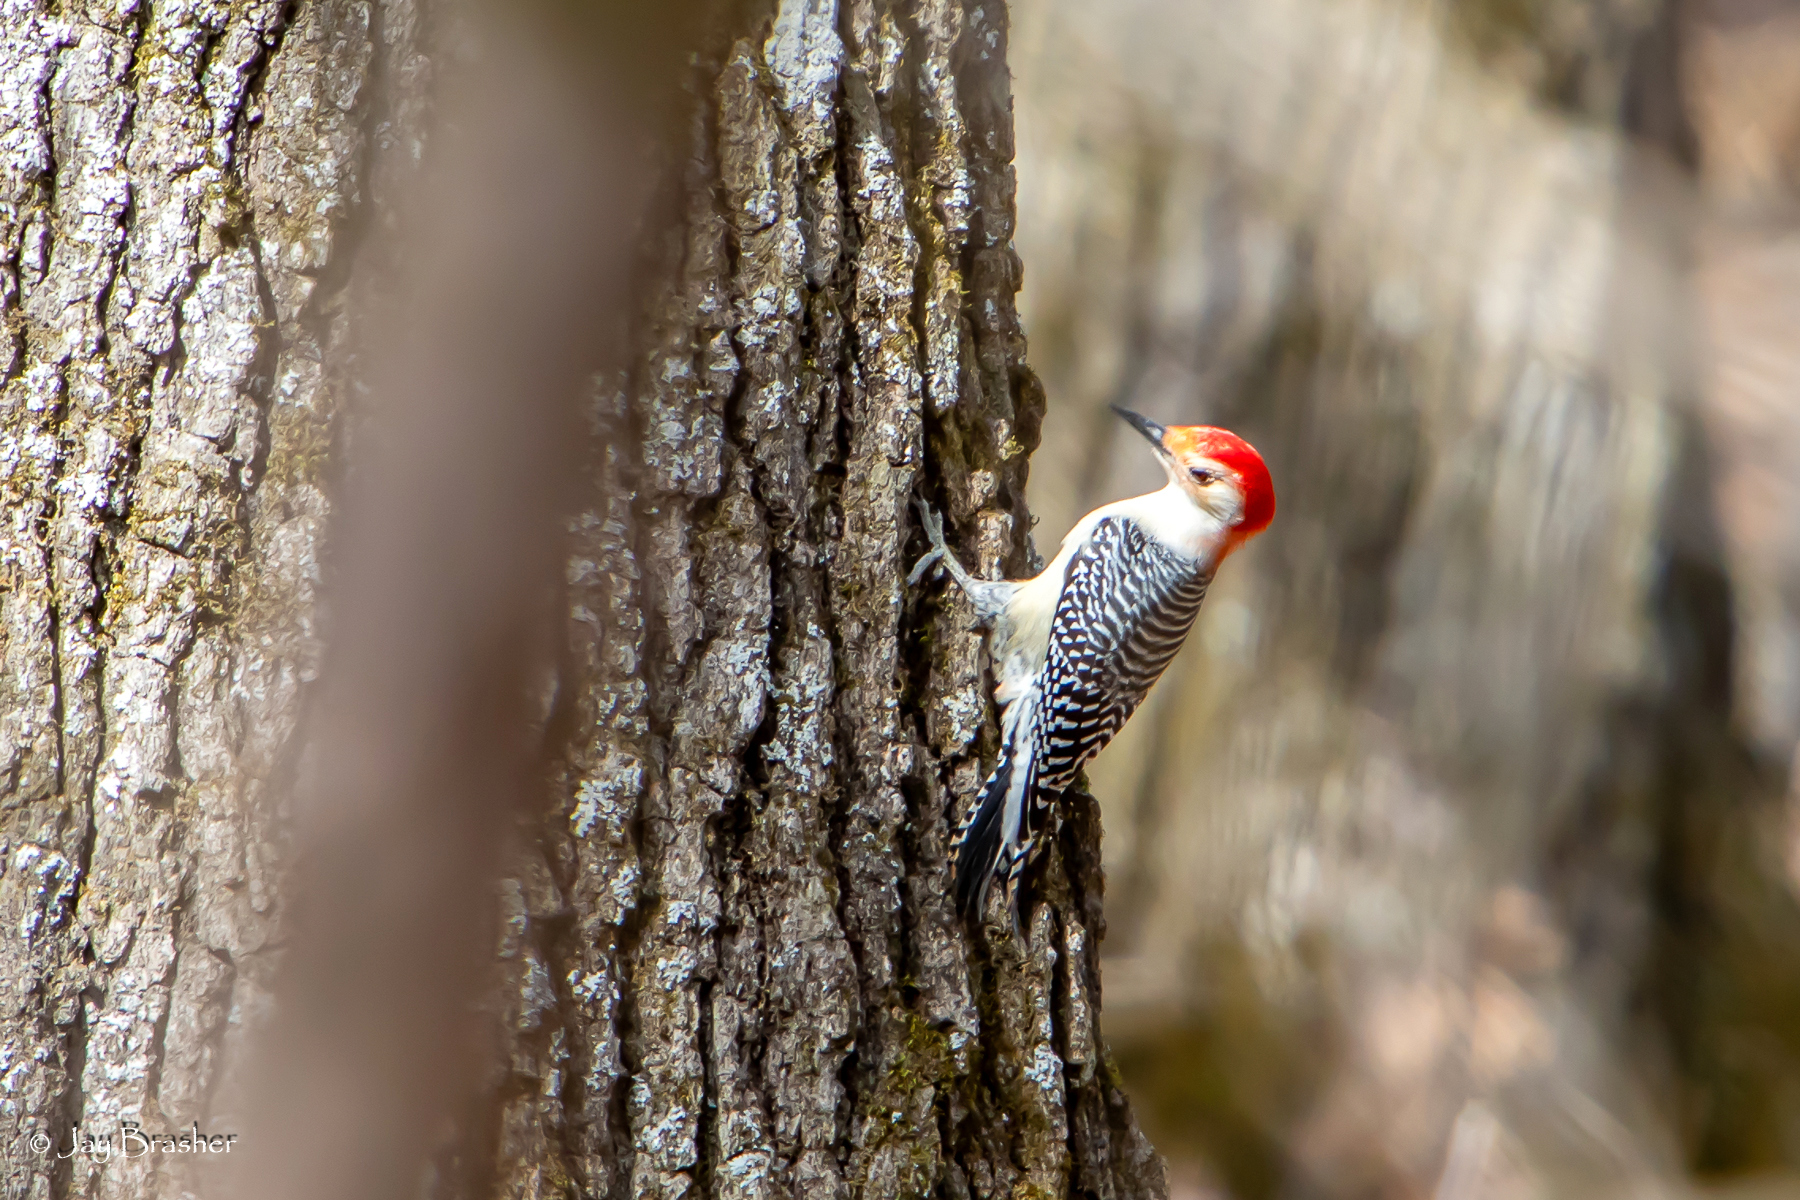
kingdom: Animalia
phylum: Chordata
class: Aves
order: Piciformes
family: Picidae
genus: Melanerpes
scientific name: Melanerpes carolinus
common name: Red-bellied woodpecker
